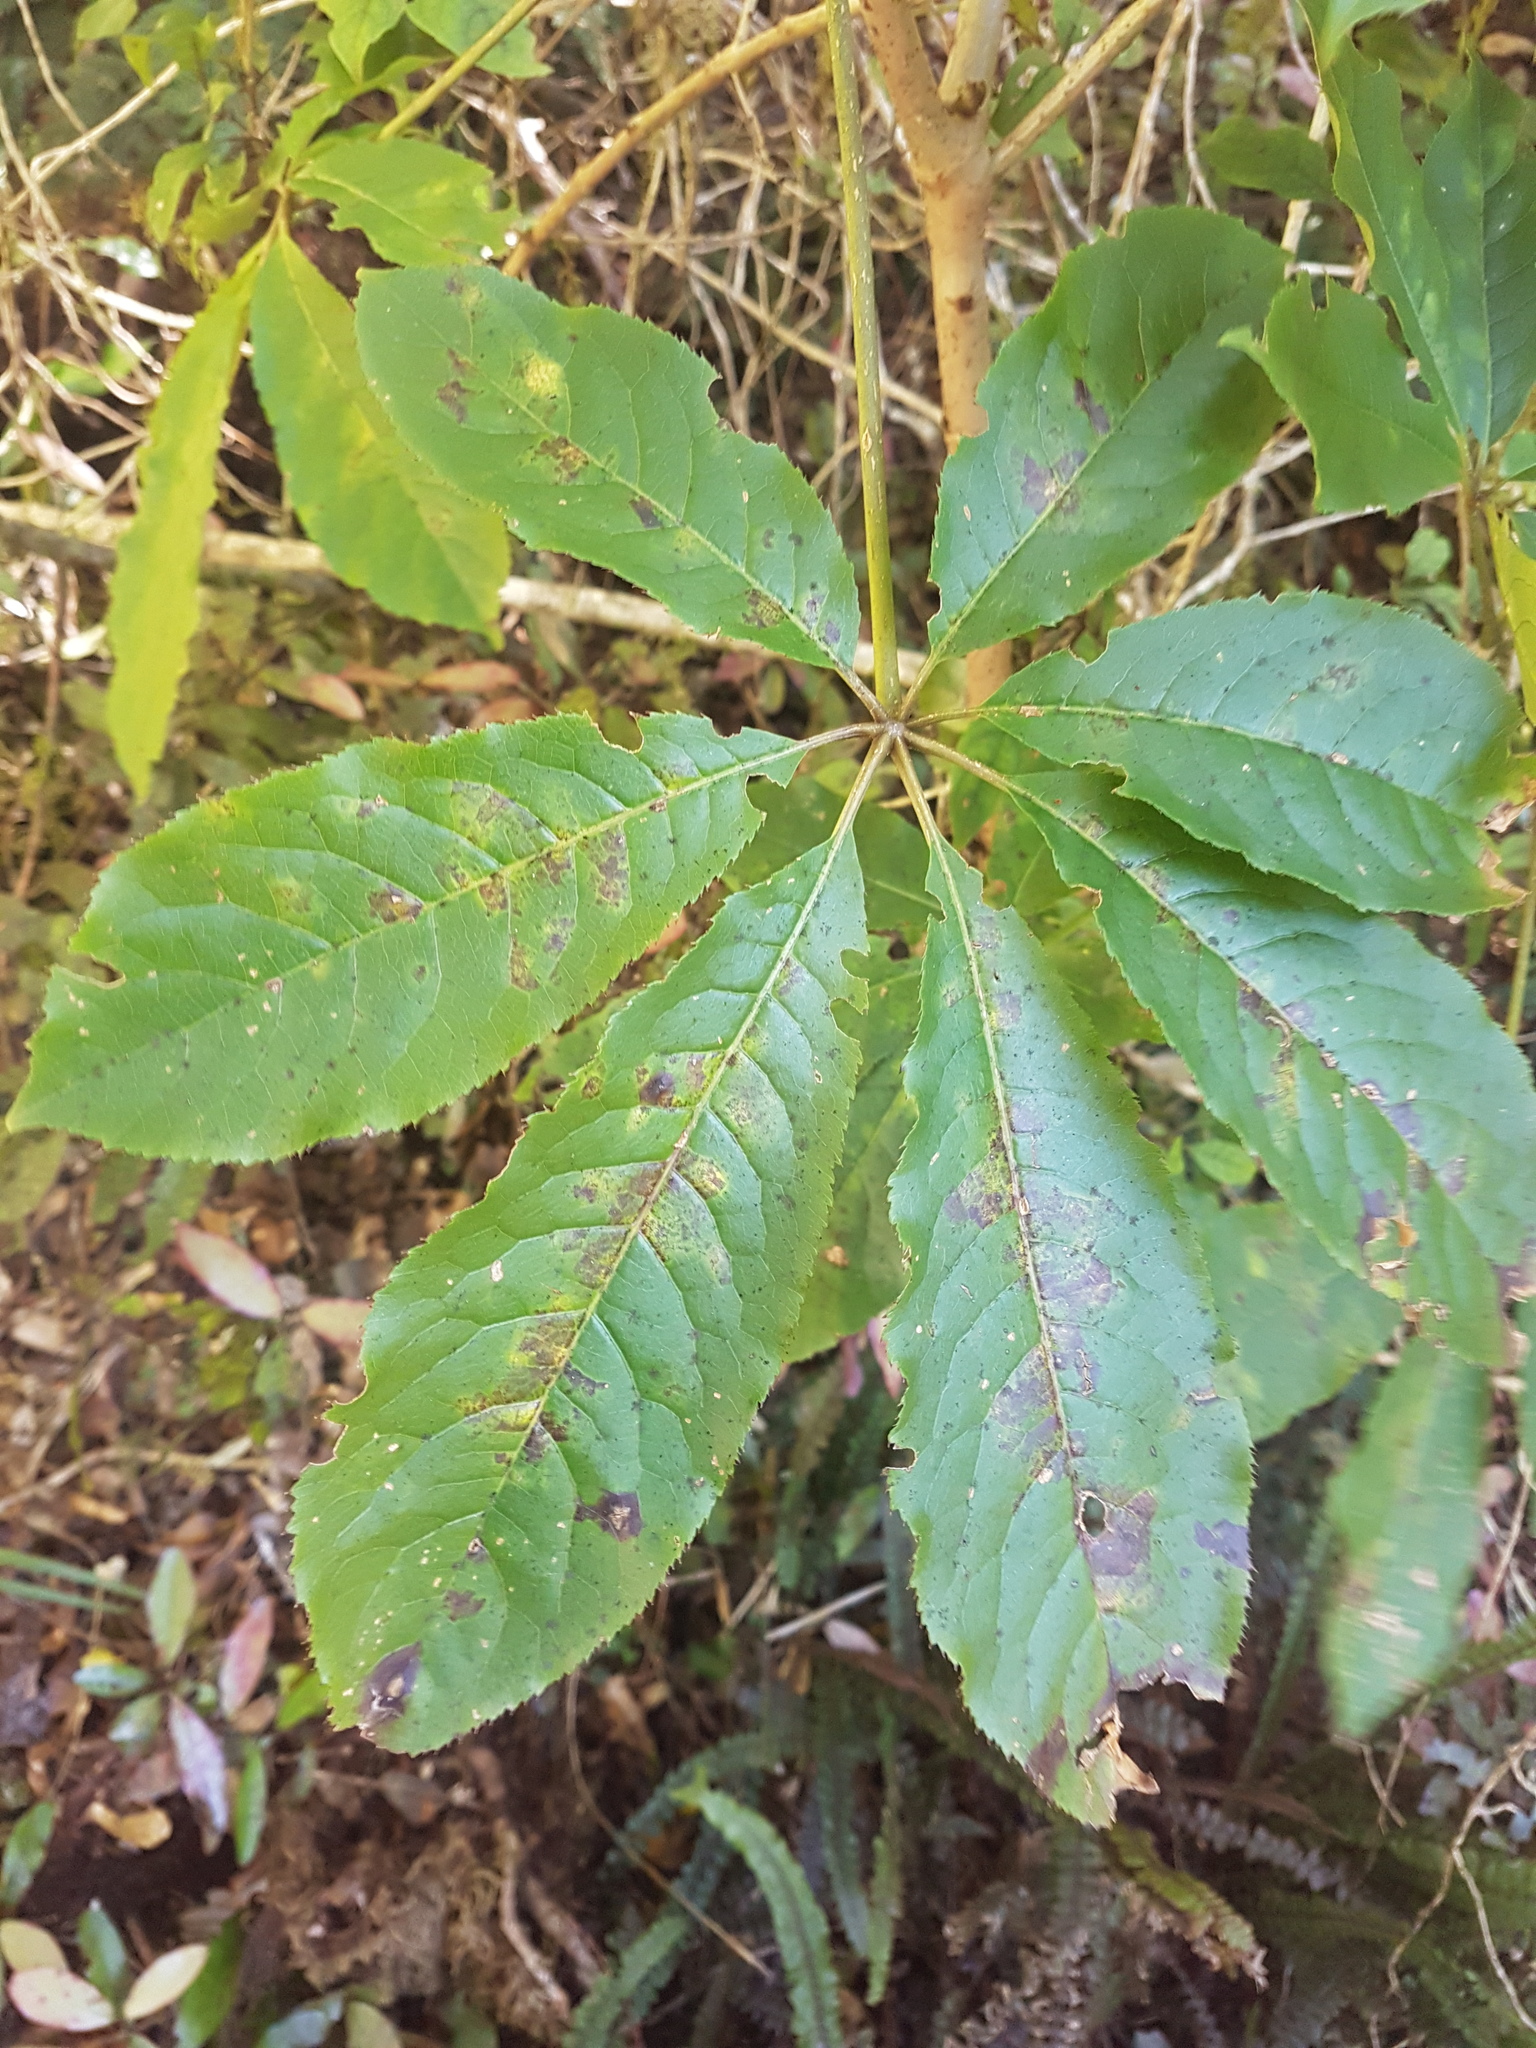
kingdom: Plantae
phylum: Tracheophyta
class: Magnoliopsida
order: Apiales
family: Araliaceae
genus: Schefflera
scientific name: Schefflera digitata
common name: Pate
